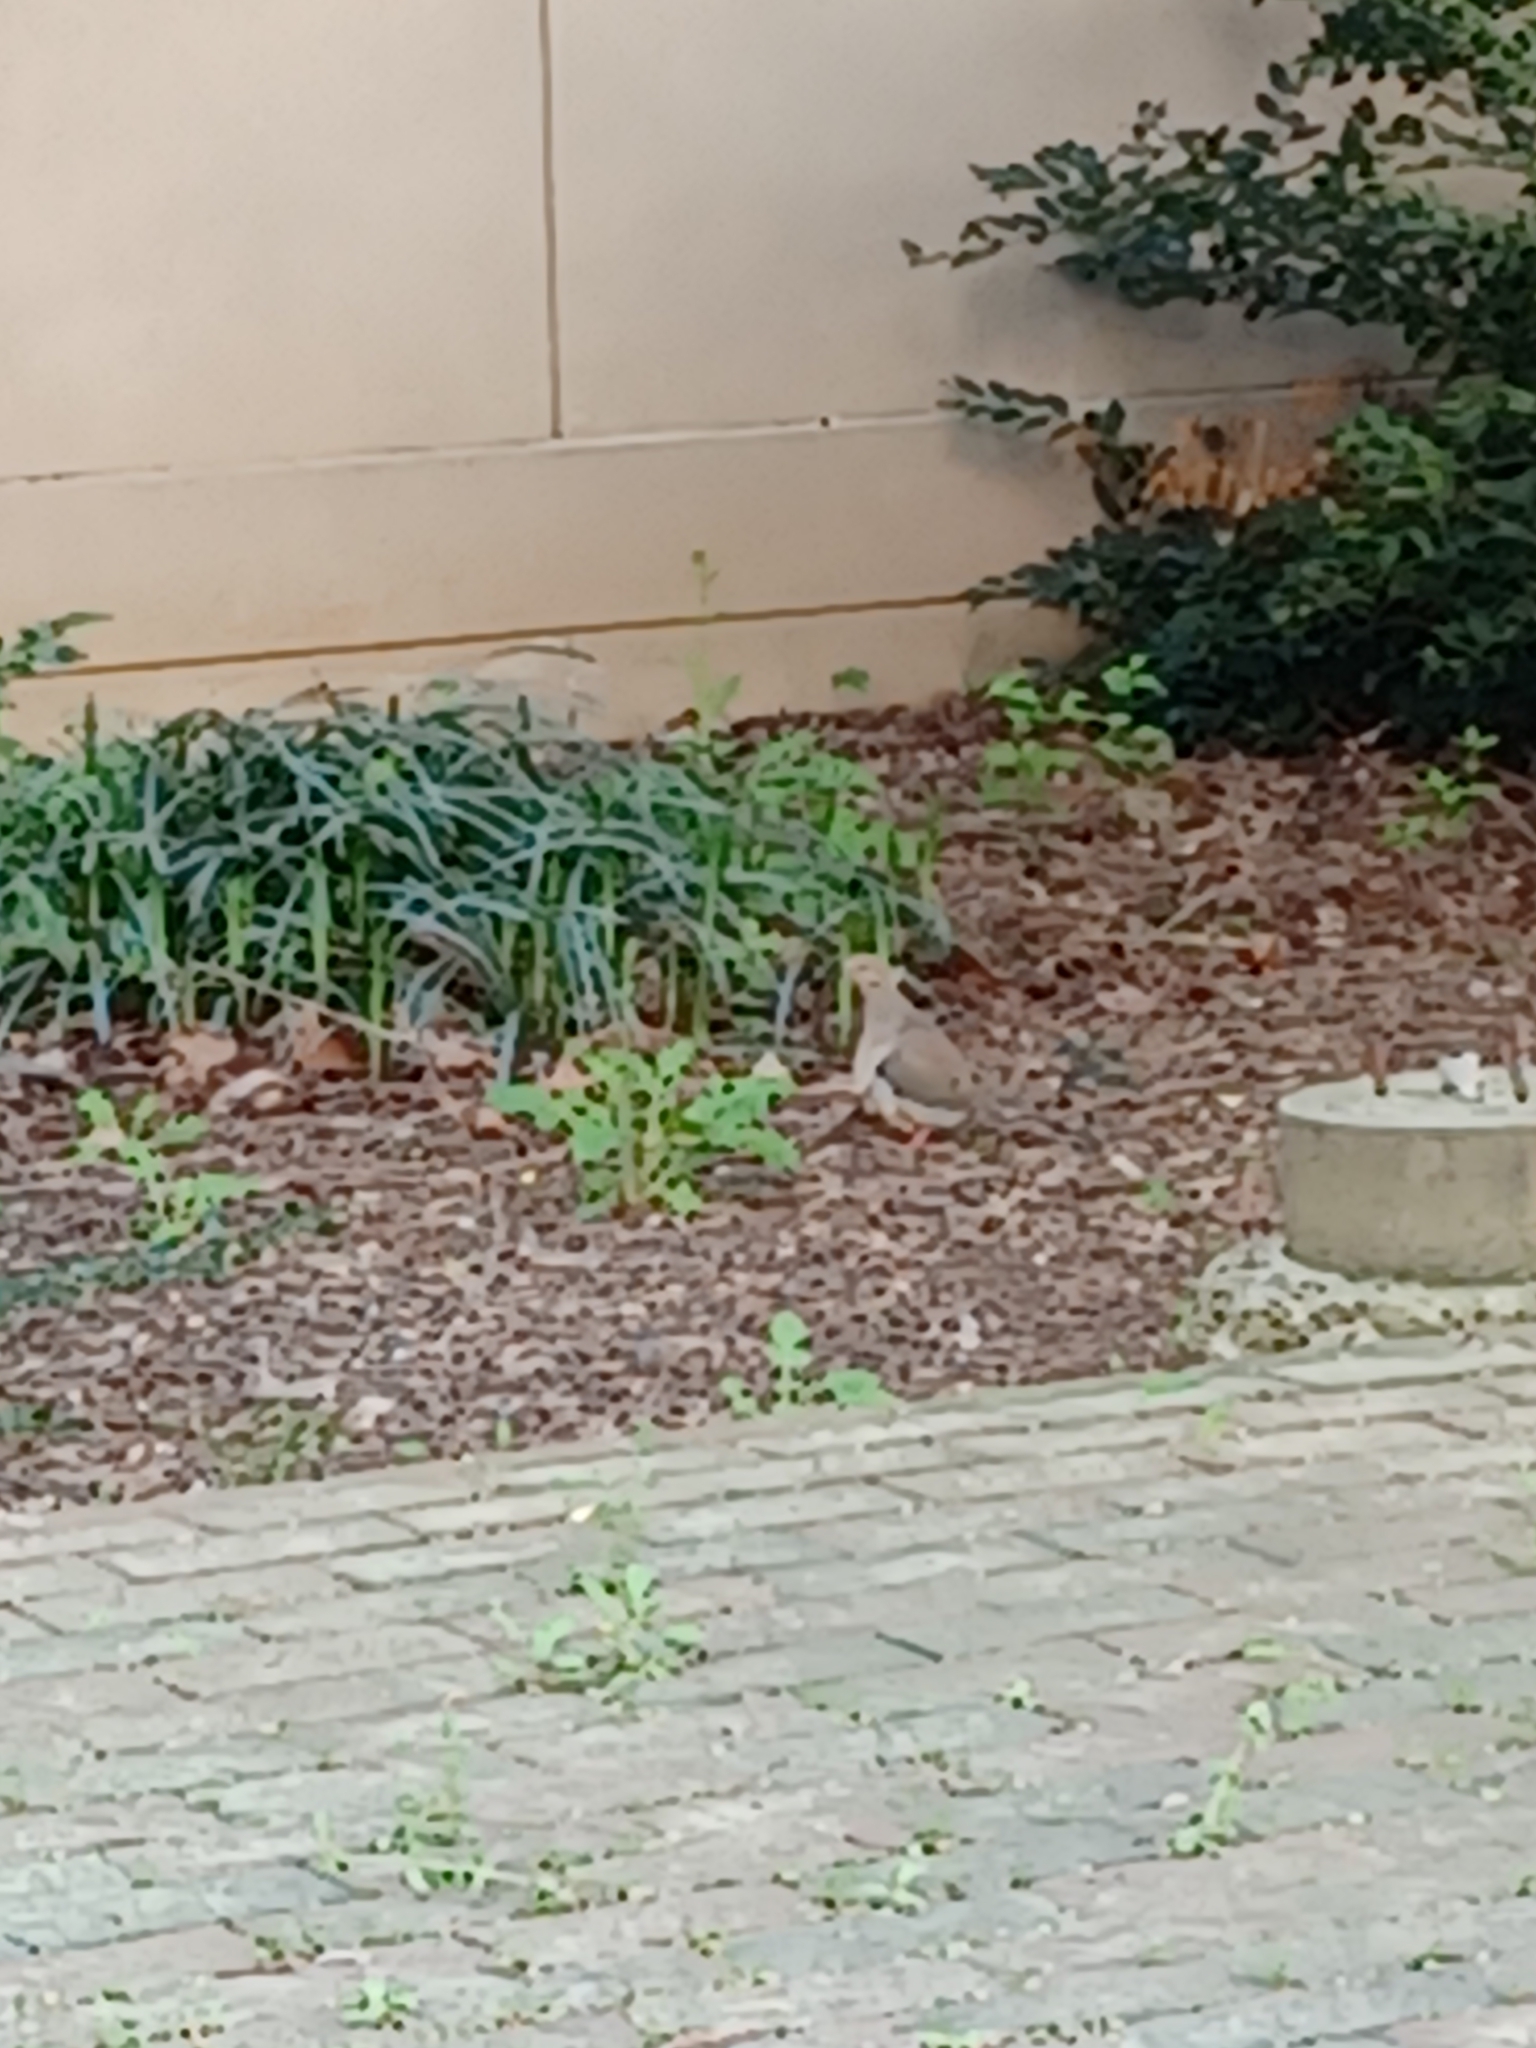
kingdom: Animalia
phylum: Chordata
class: Aves
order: Columbiformes
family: Columbidae
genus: Zenaida
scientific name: Zenaida macroura
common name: Mourning dove
